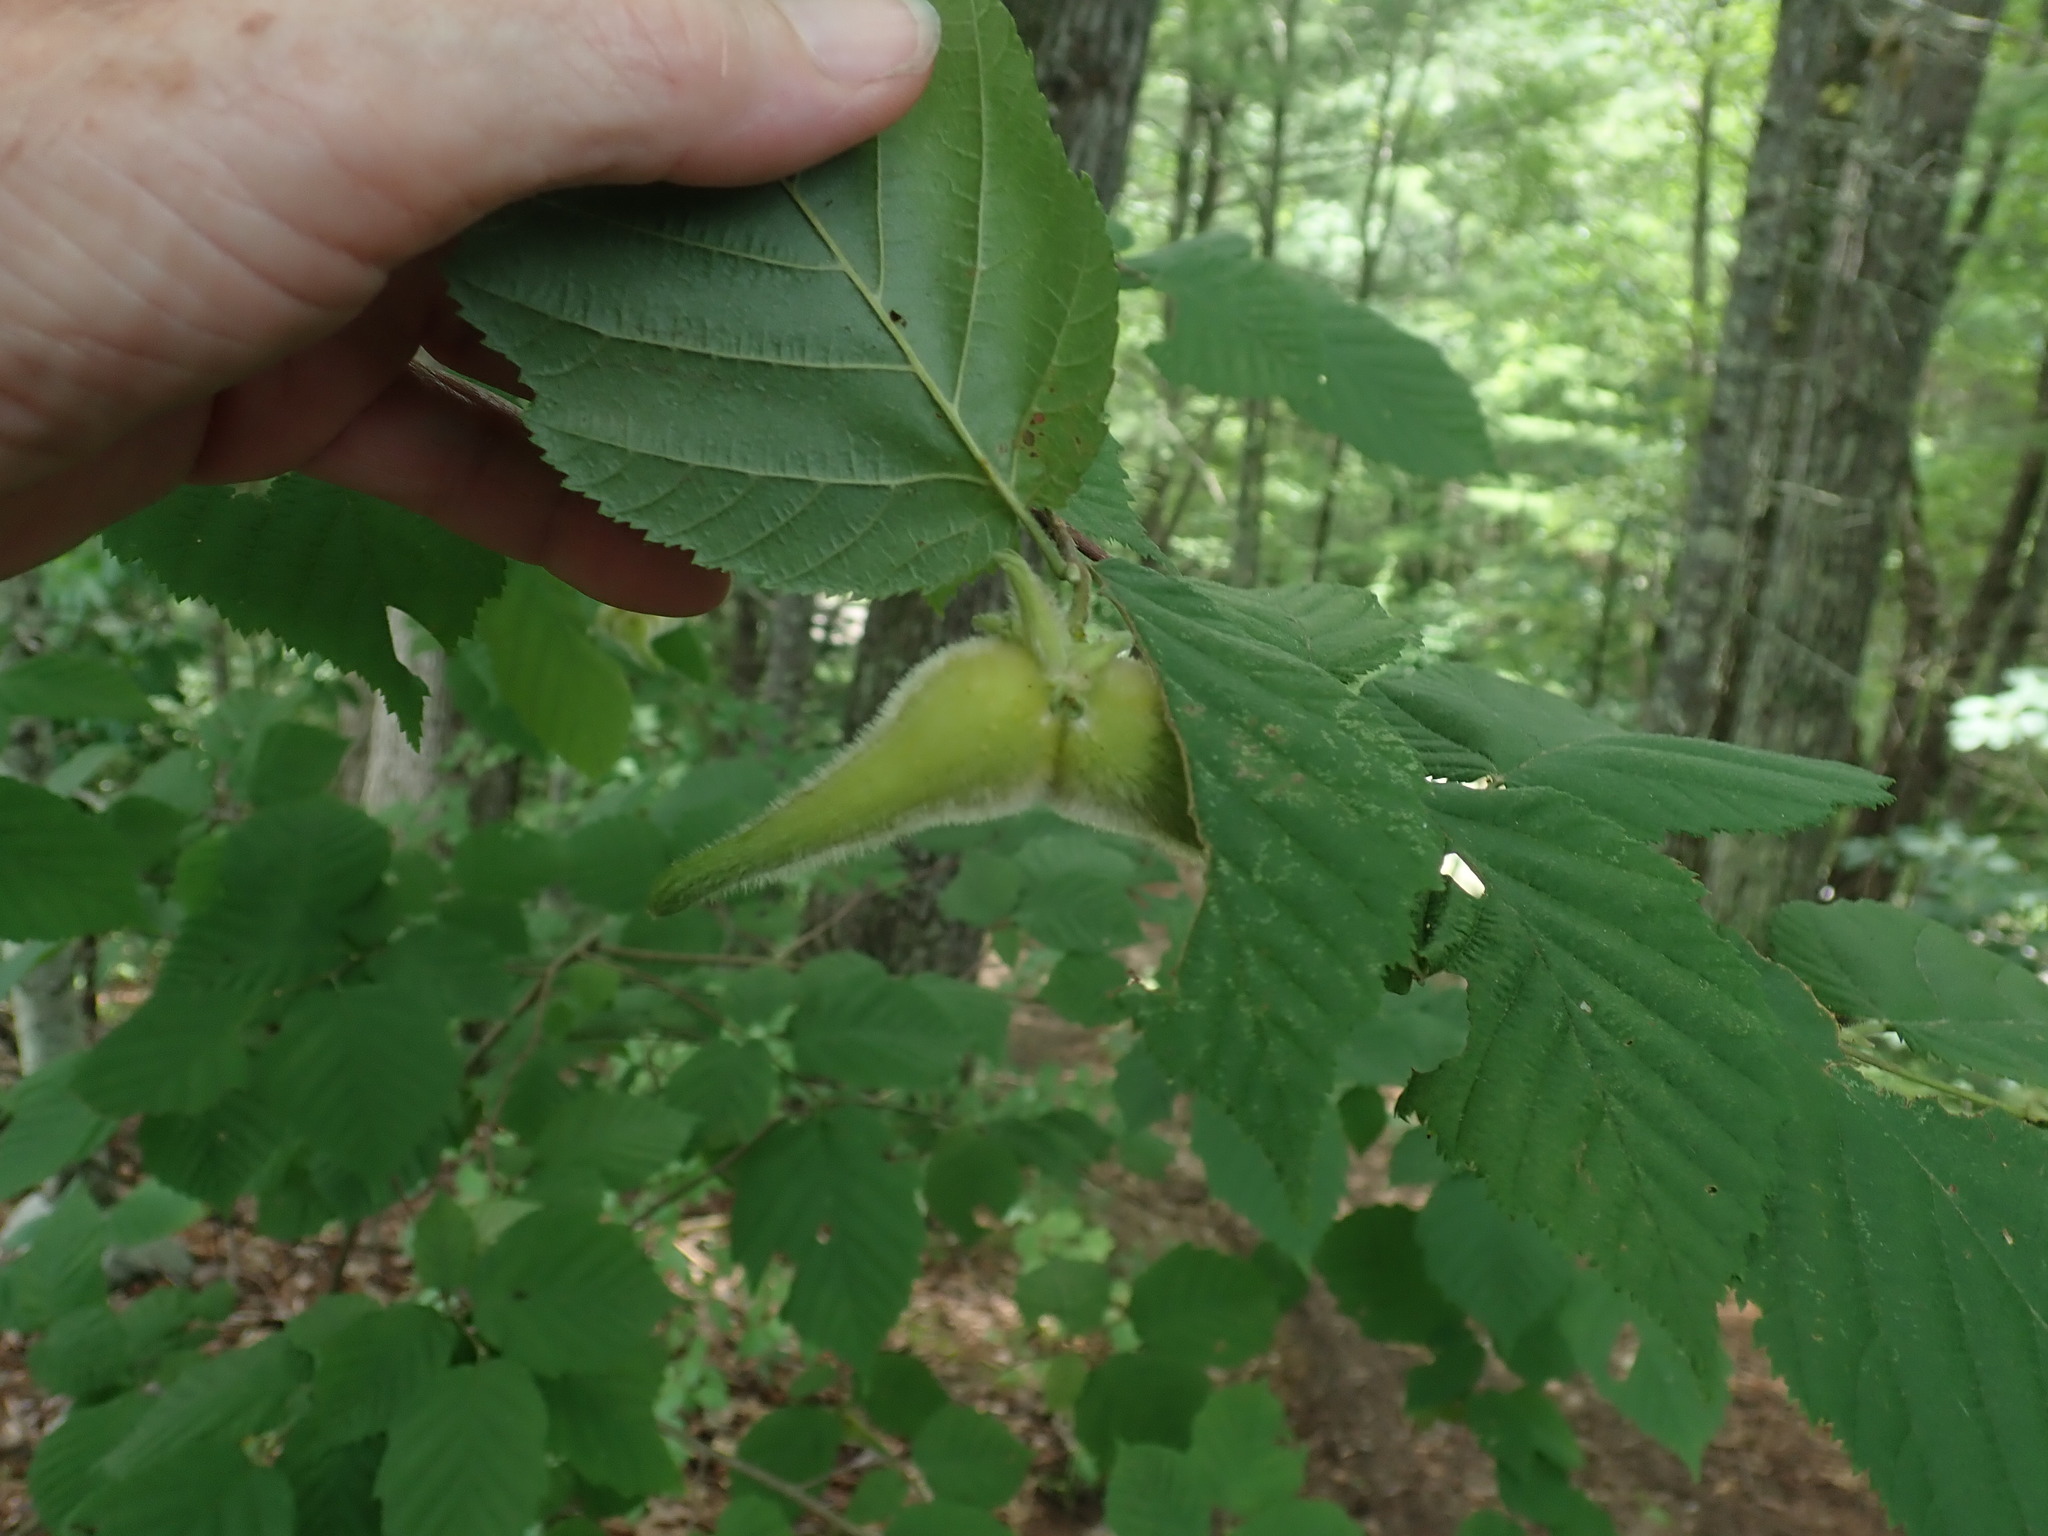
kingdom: Plantae
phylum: Tracheophyta
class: Magnoliopsida
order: Fagales
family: Betulaceae
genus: Corylus
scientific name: Corylus cornuta
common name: Beaked hazel
